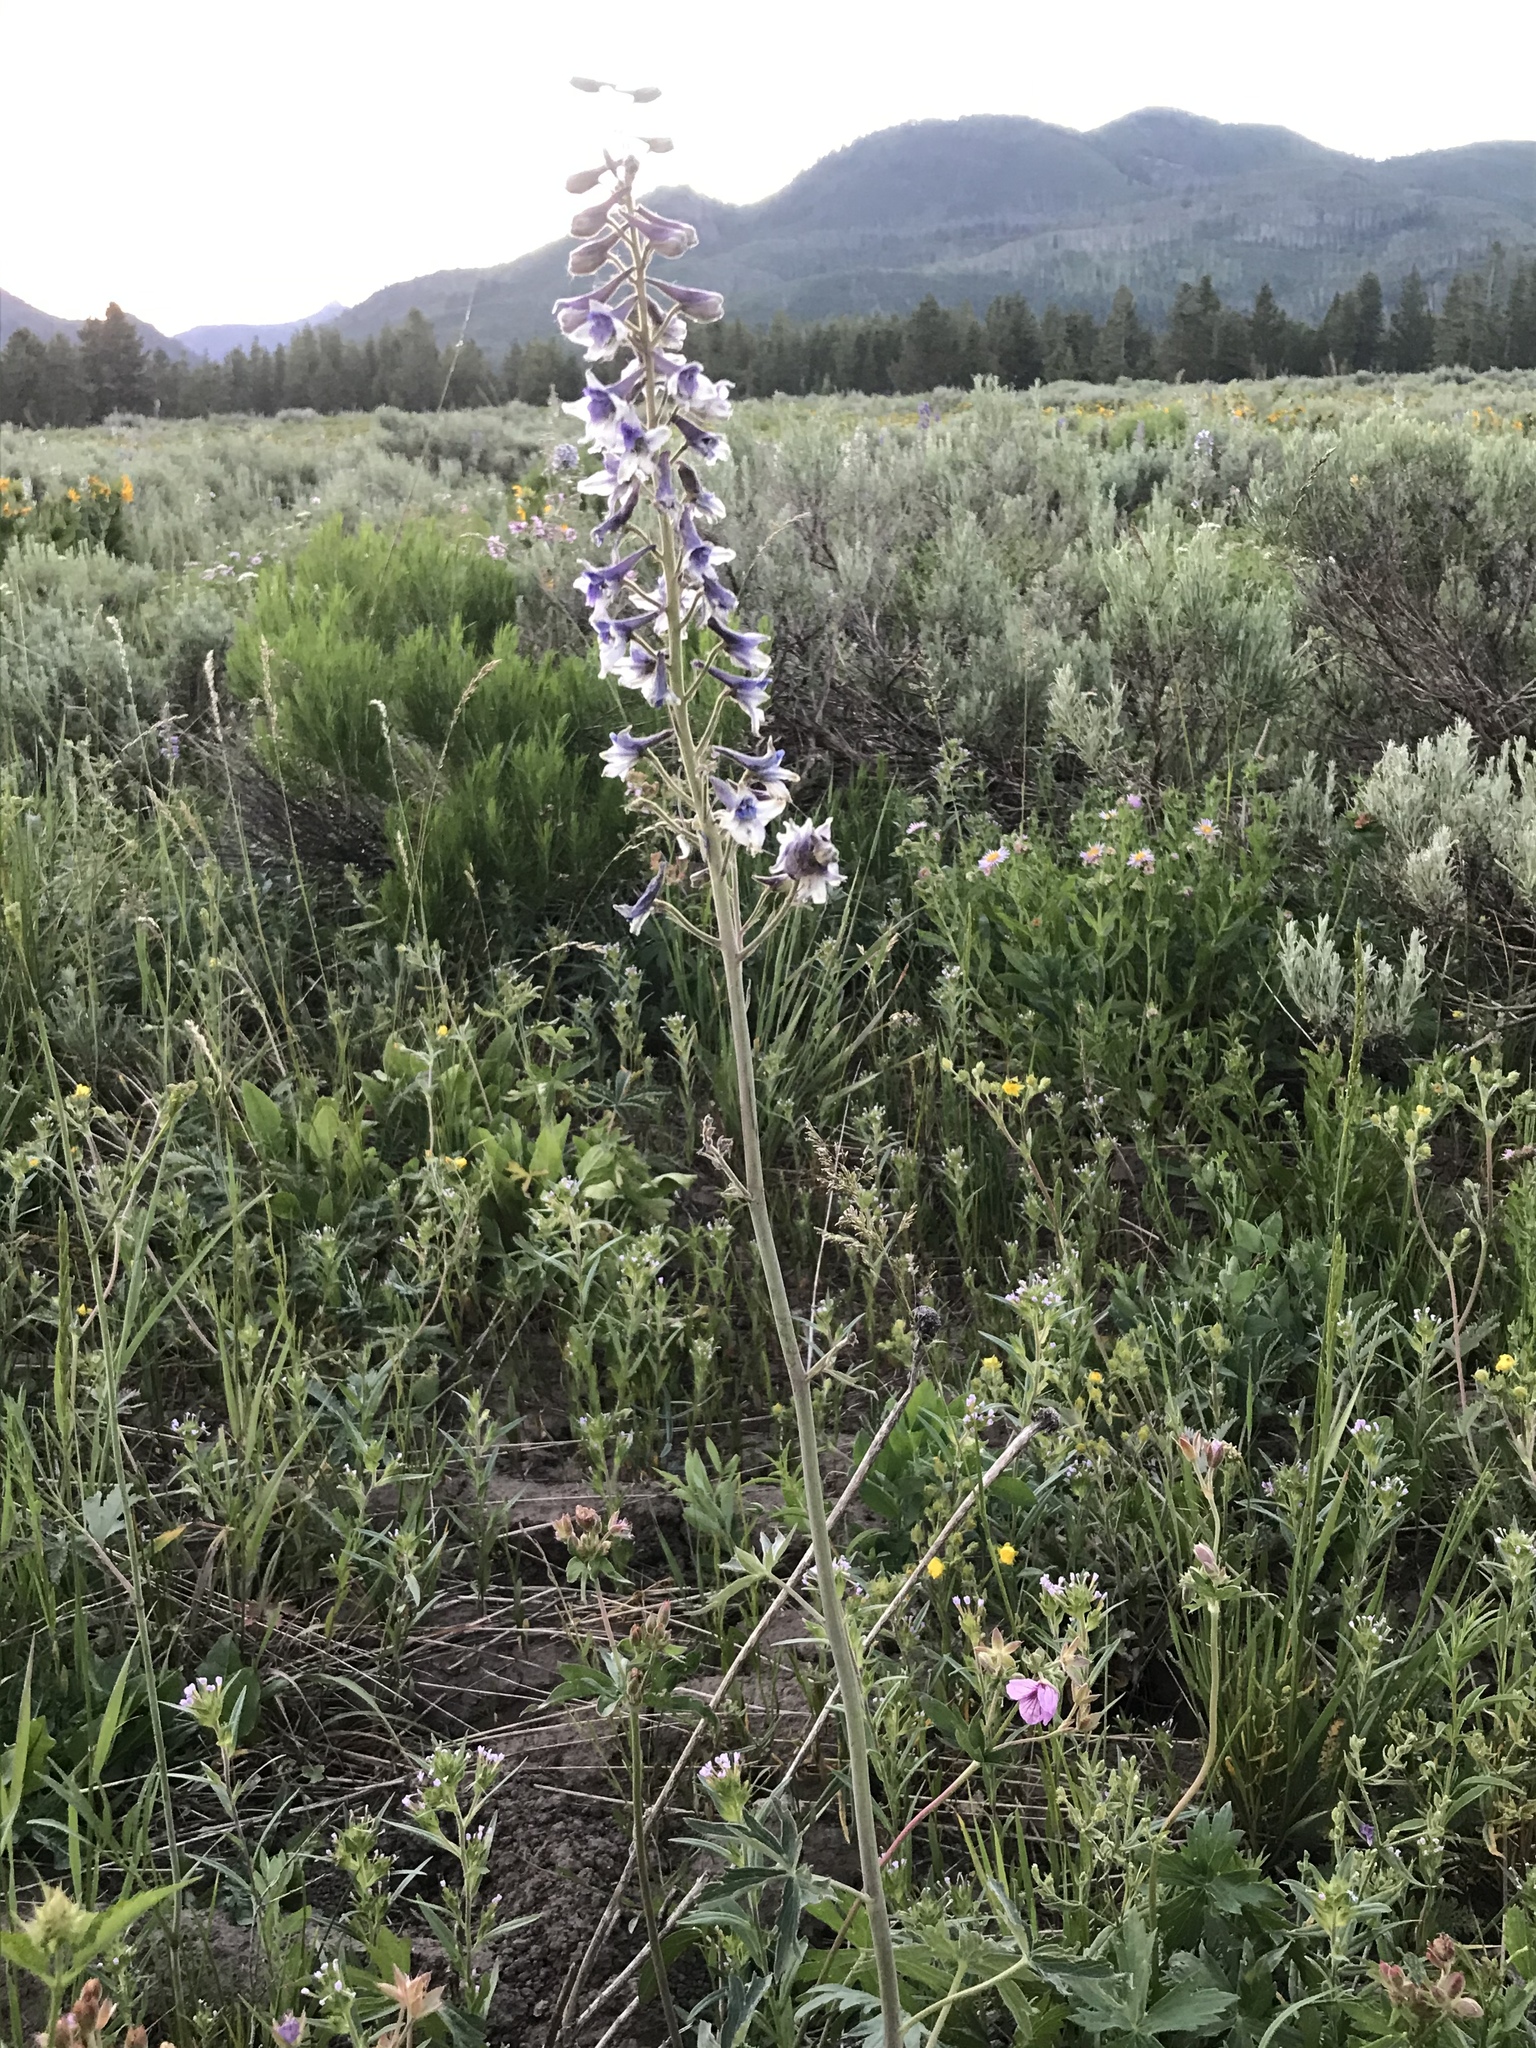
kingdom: Plantae
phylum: Tracheophyta
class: Magnoliopsida
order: Ranunculales
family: Ranunculaceae
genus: Delphinium
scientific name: Delphinium occidentale
